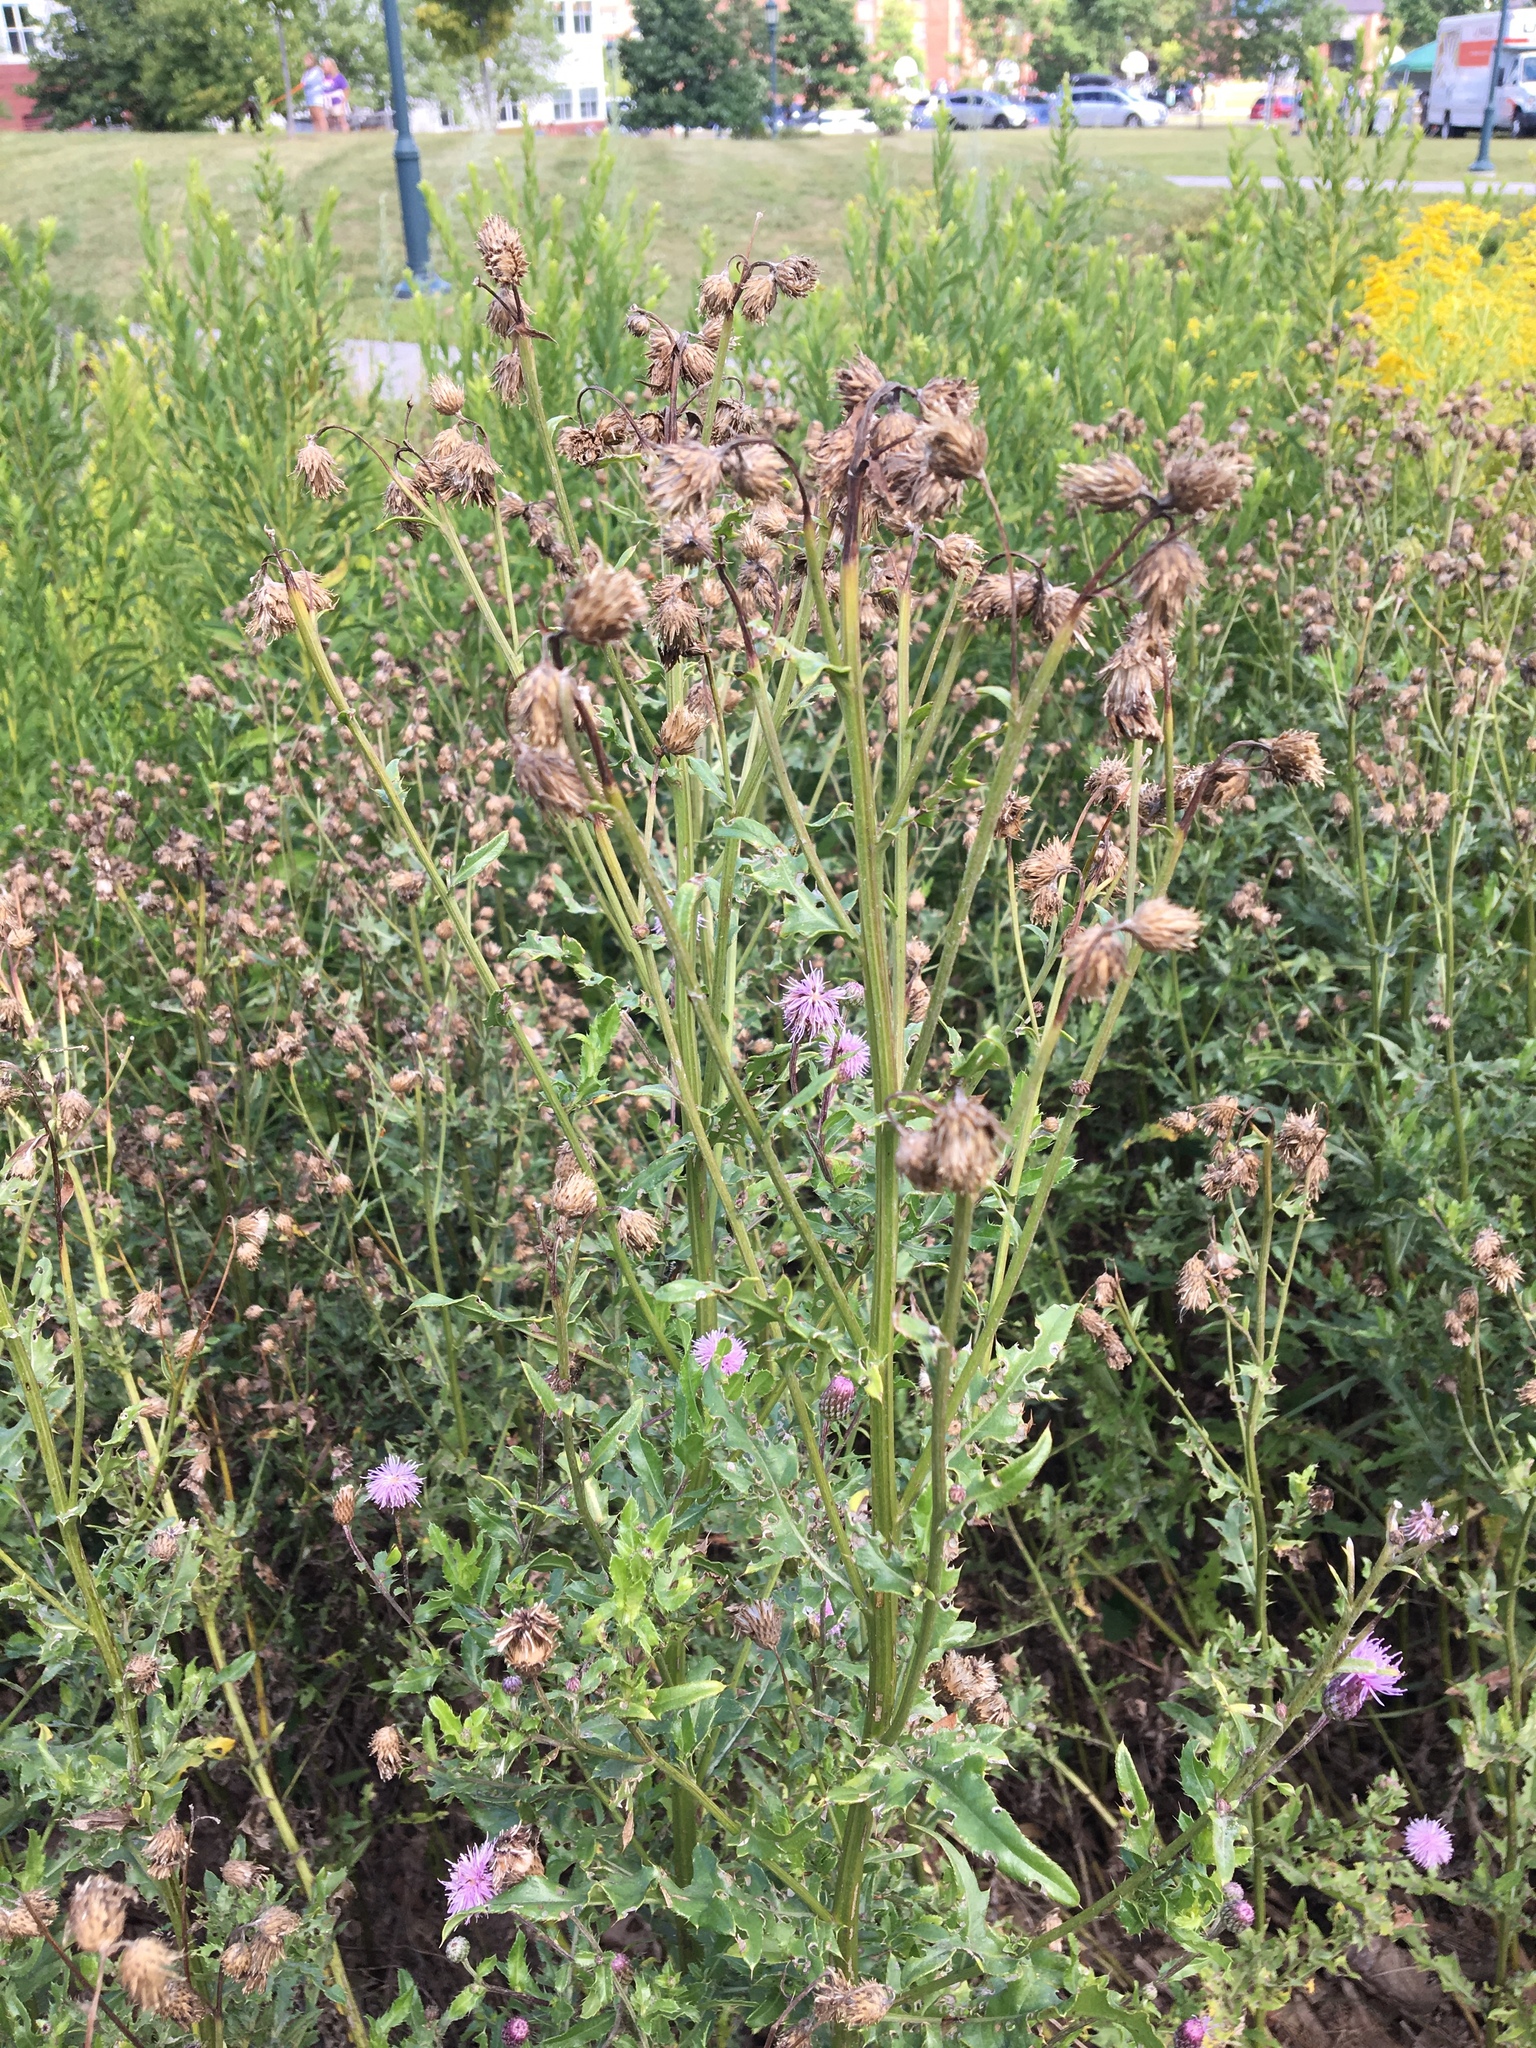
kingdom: Plantae
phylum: Tracheophyta
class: Magnoliopsida
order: Asterales
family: Asteraceae
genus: Cirsium
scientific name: Cirsium arvense
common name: Creeping thistle
